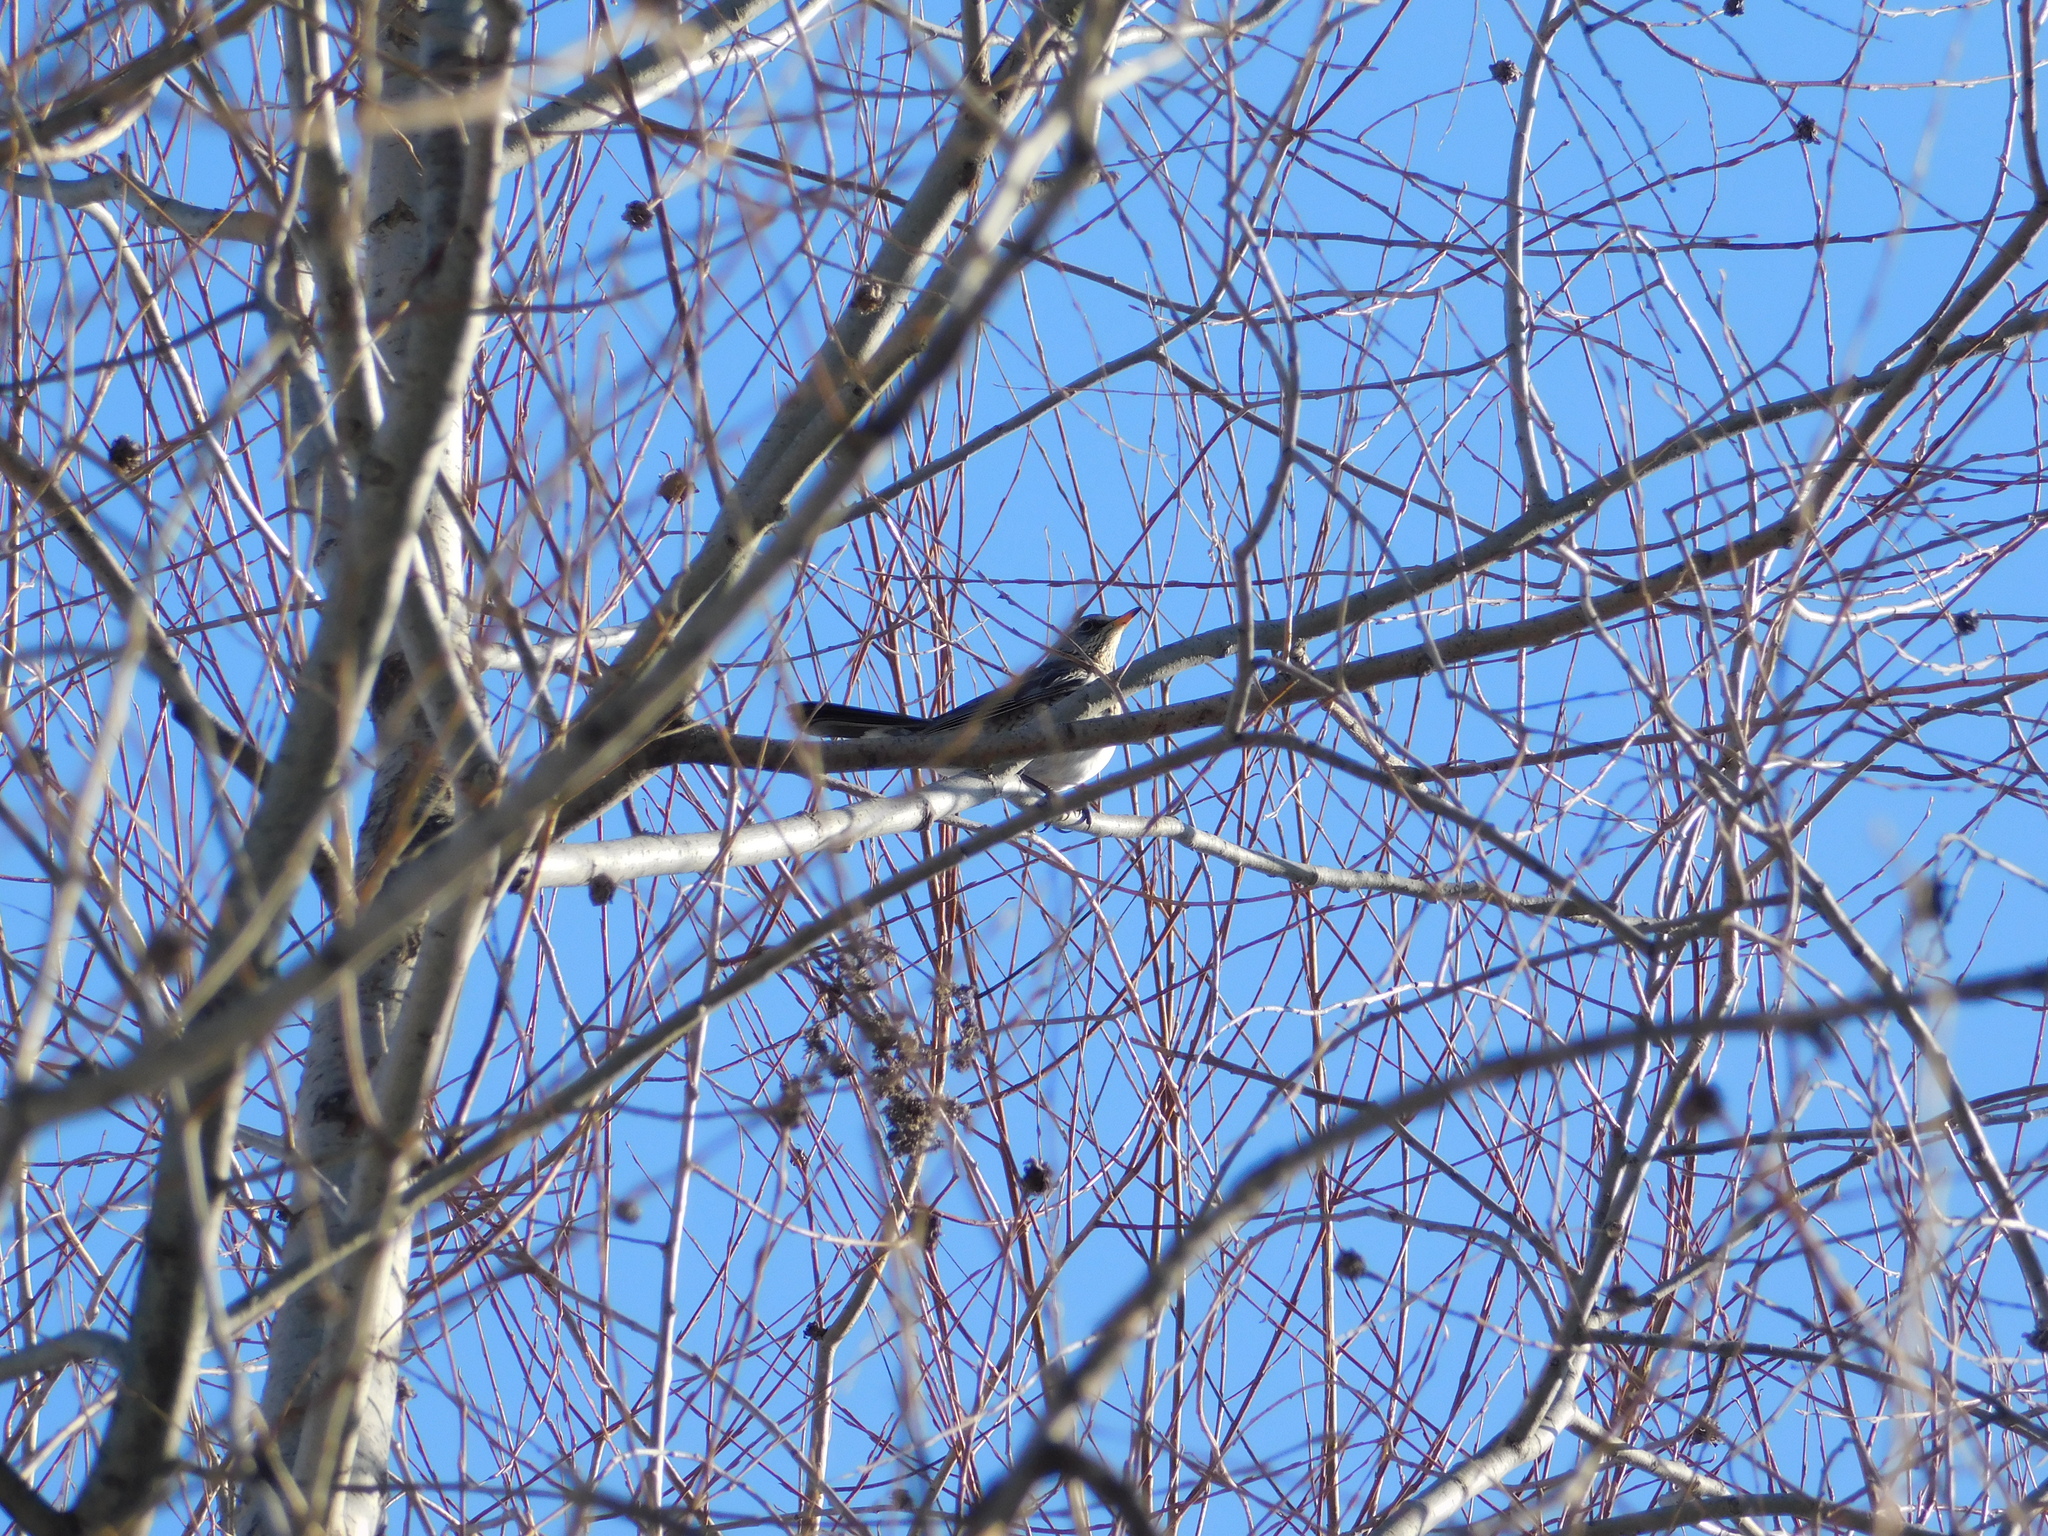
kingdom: Animalia
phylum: Chordata
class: Aves
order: Passeriformes
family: Turdidae
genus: Turdus
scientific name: Turdus pilaris
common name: Fieldfare
